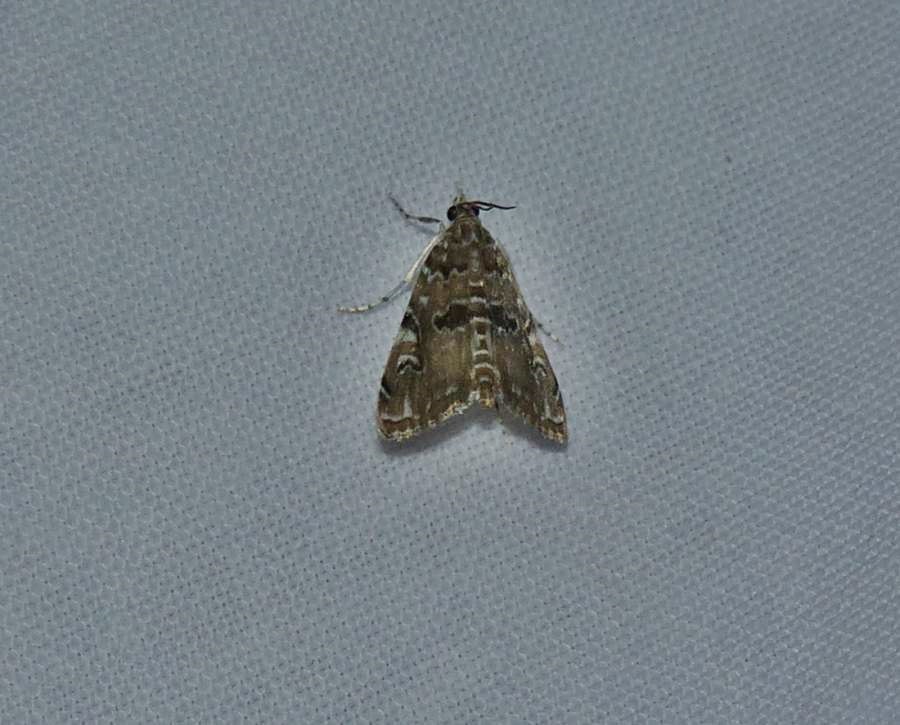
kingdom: Animalia
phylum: Arthropoda
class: Insecta
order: Lepidoptera
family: Crambidae
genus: Elophila
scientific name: Elophila gyralis
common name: Waterlily borer moth
